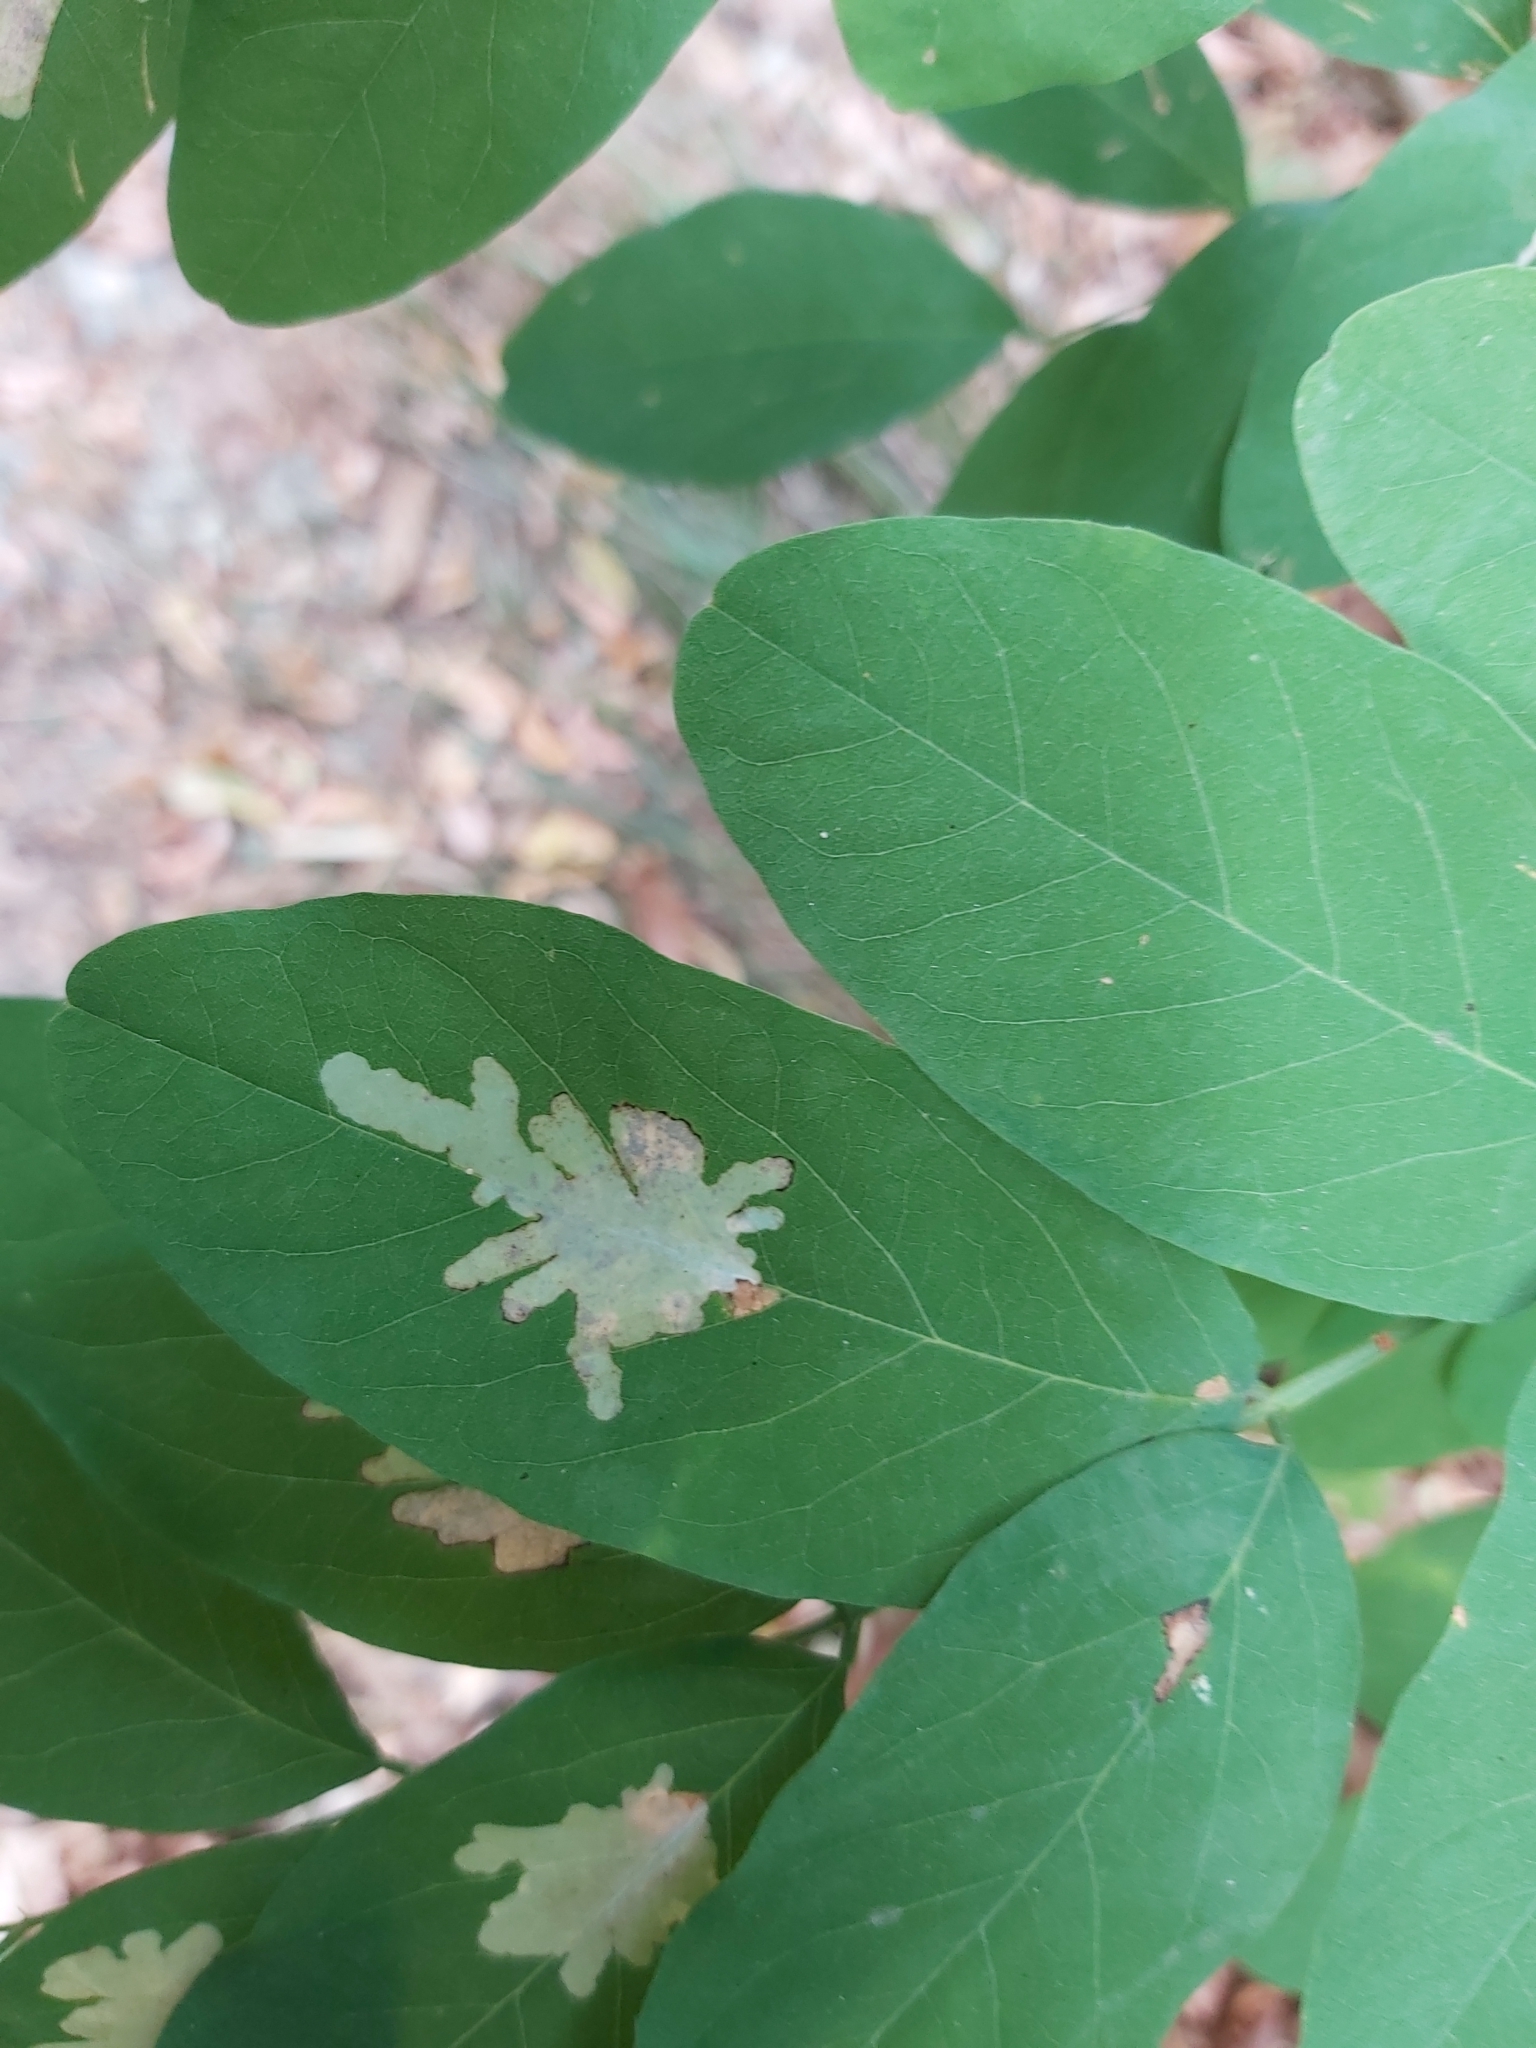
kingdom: Animalia
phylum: Arthropoda
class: Insecta
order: Lepidoptera
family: Gracillariidae
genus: Parectopa
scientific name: Parectopa robiniella
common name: Locust digitate leafminer
